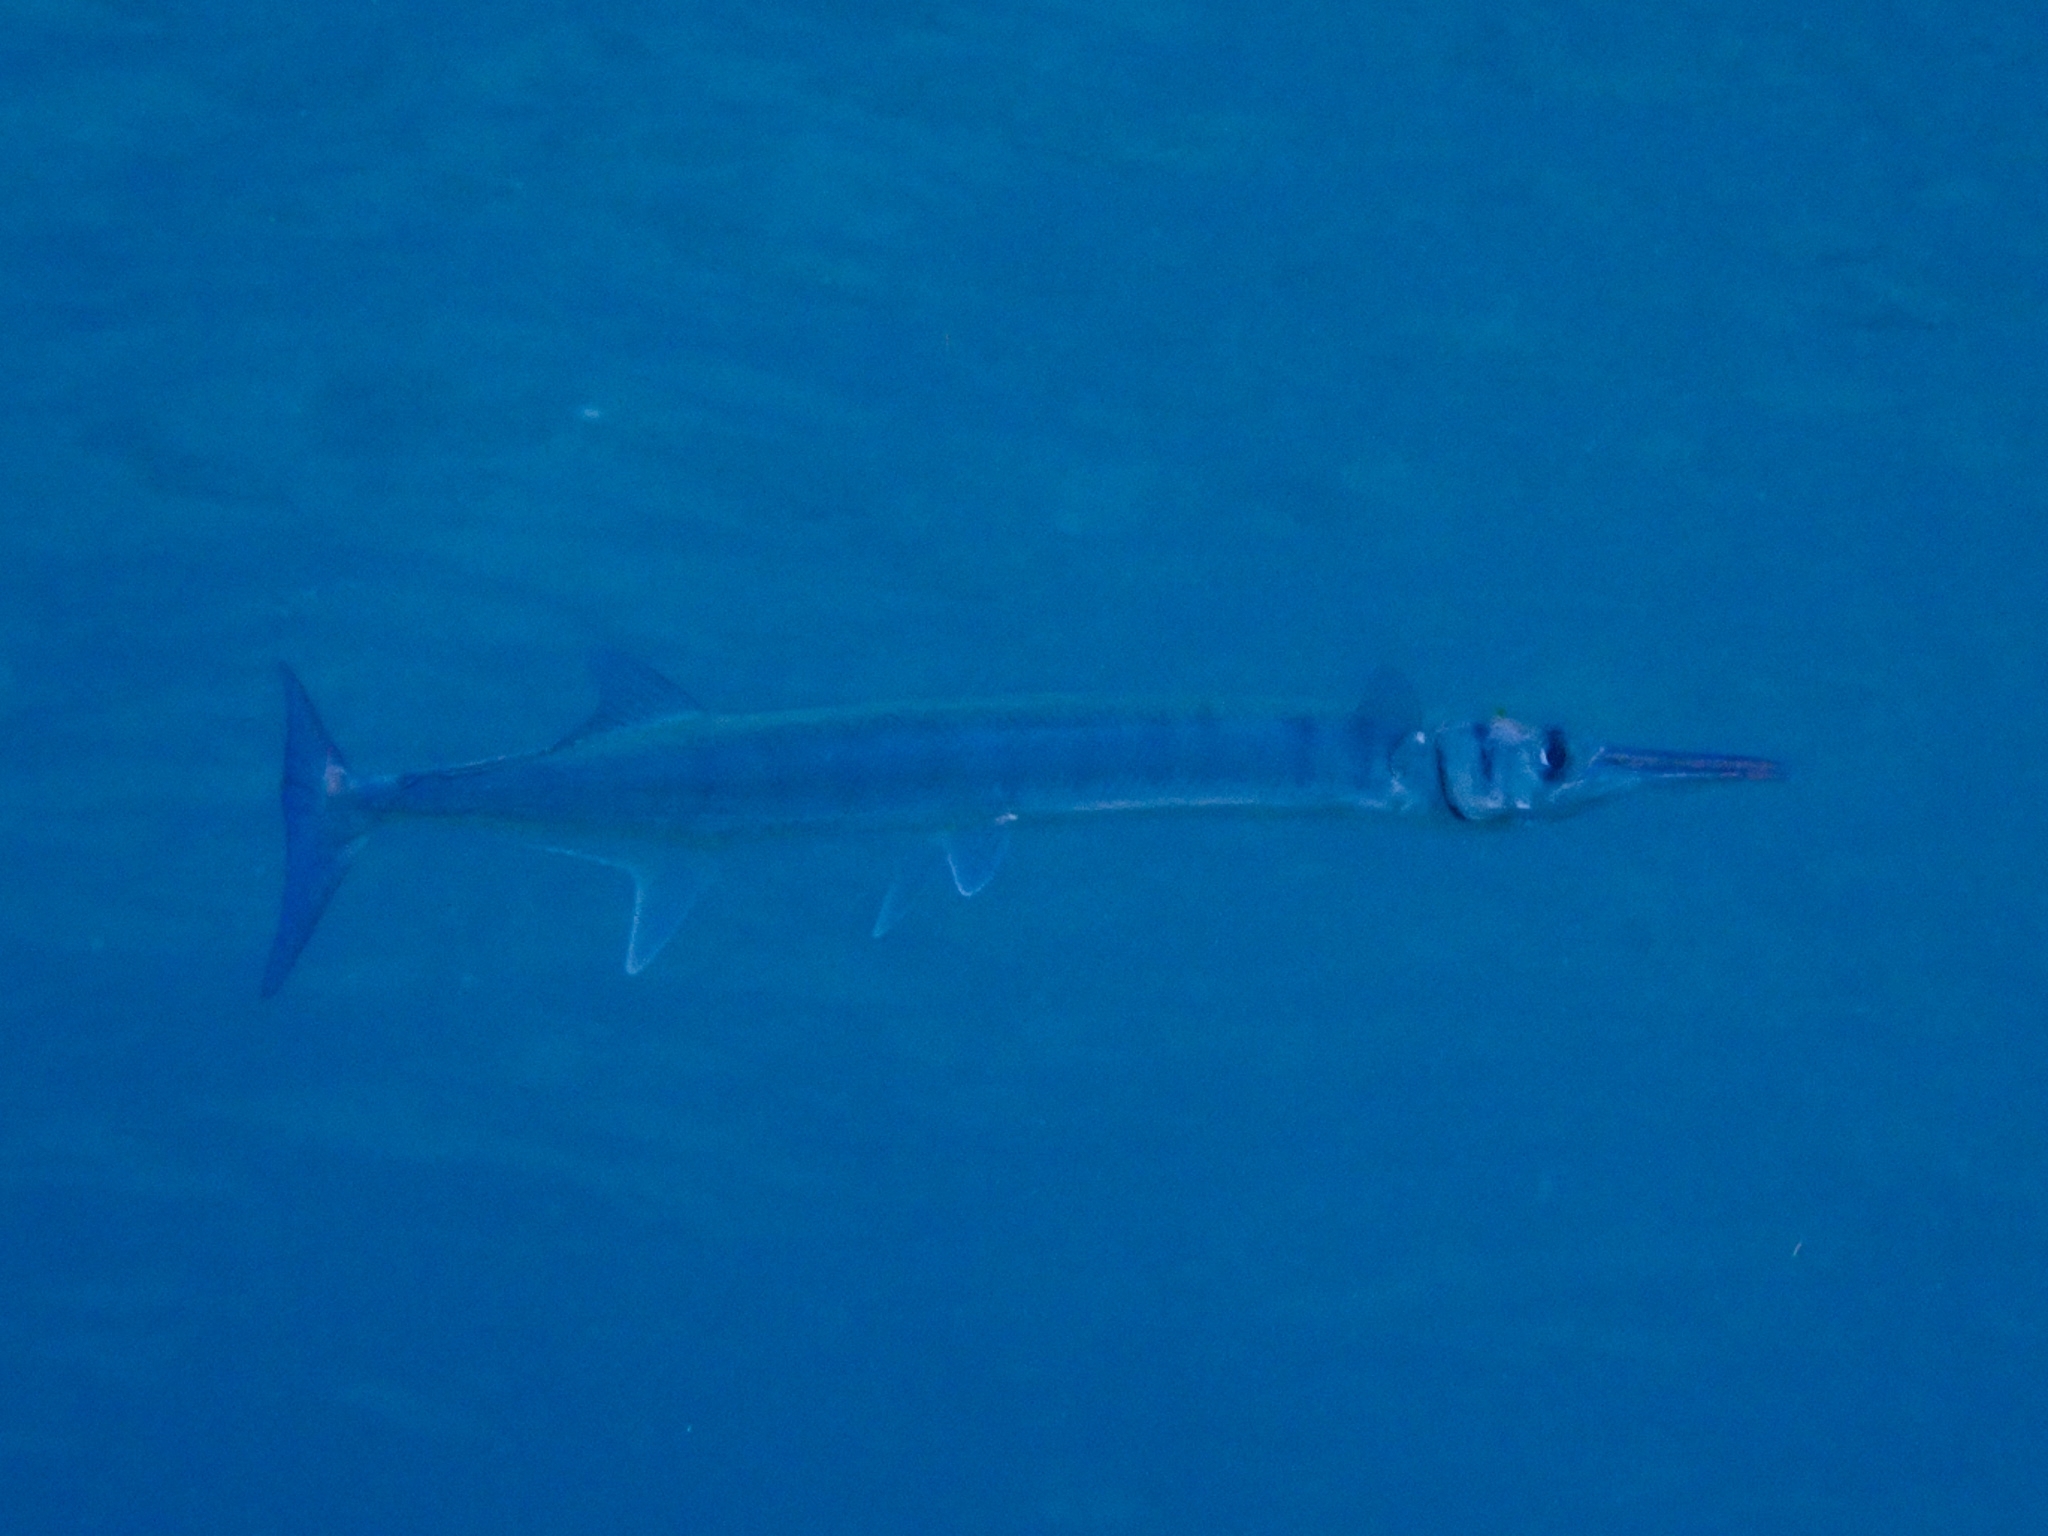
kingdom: Animalia
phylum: Chordata
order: Beloniformes
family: Belonidae
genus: Tylosurus
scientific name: Tylosurus crocodilus
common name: Houndfish
